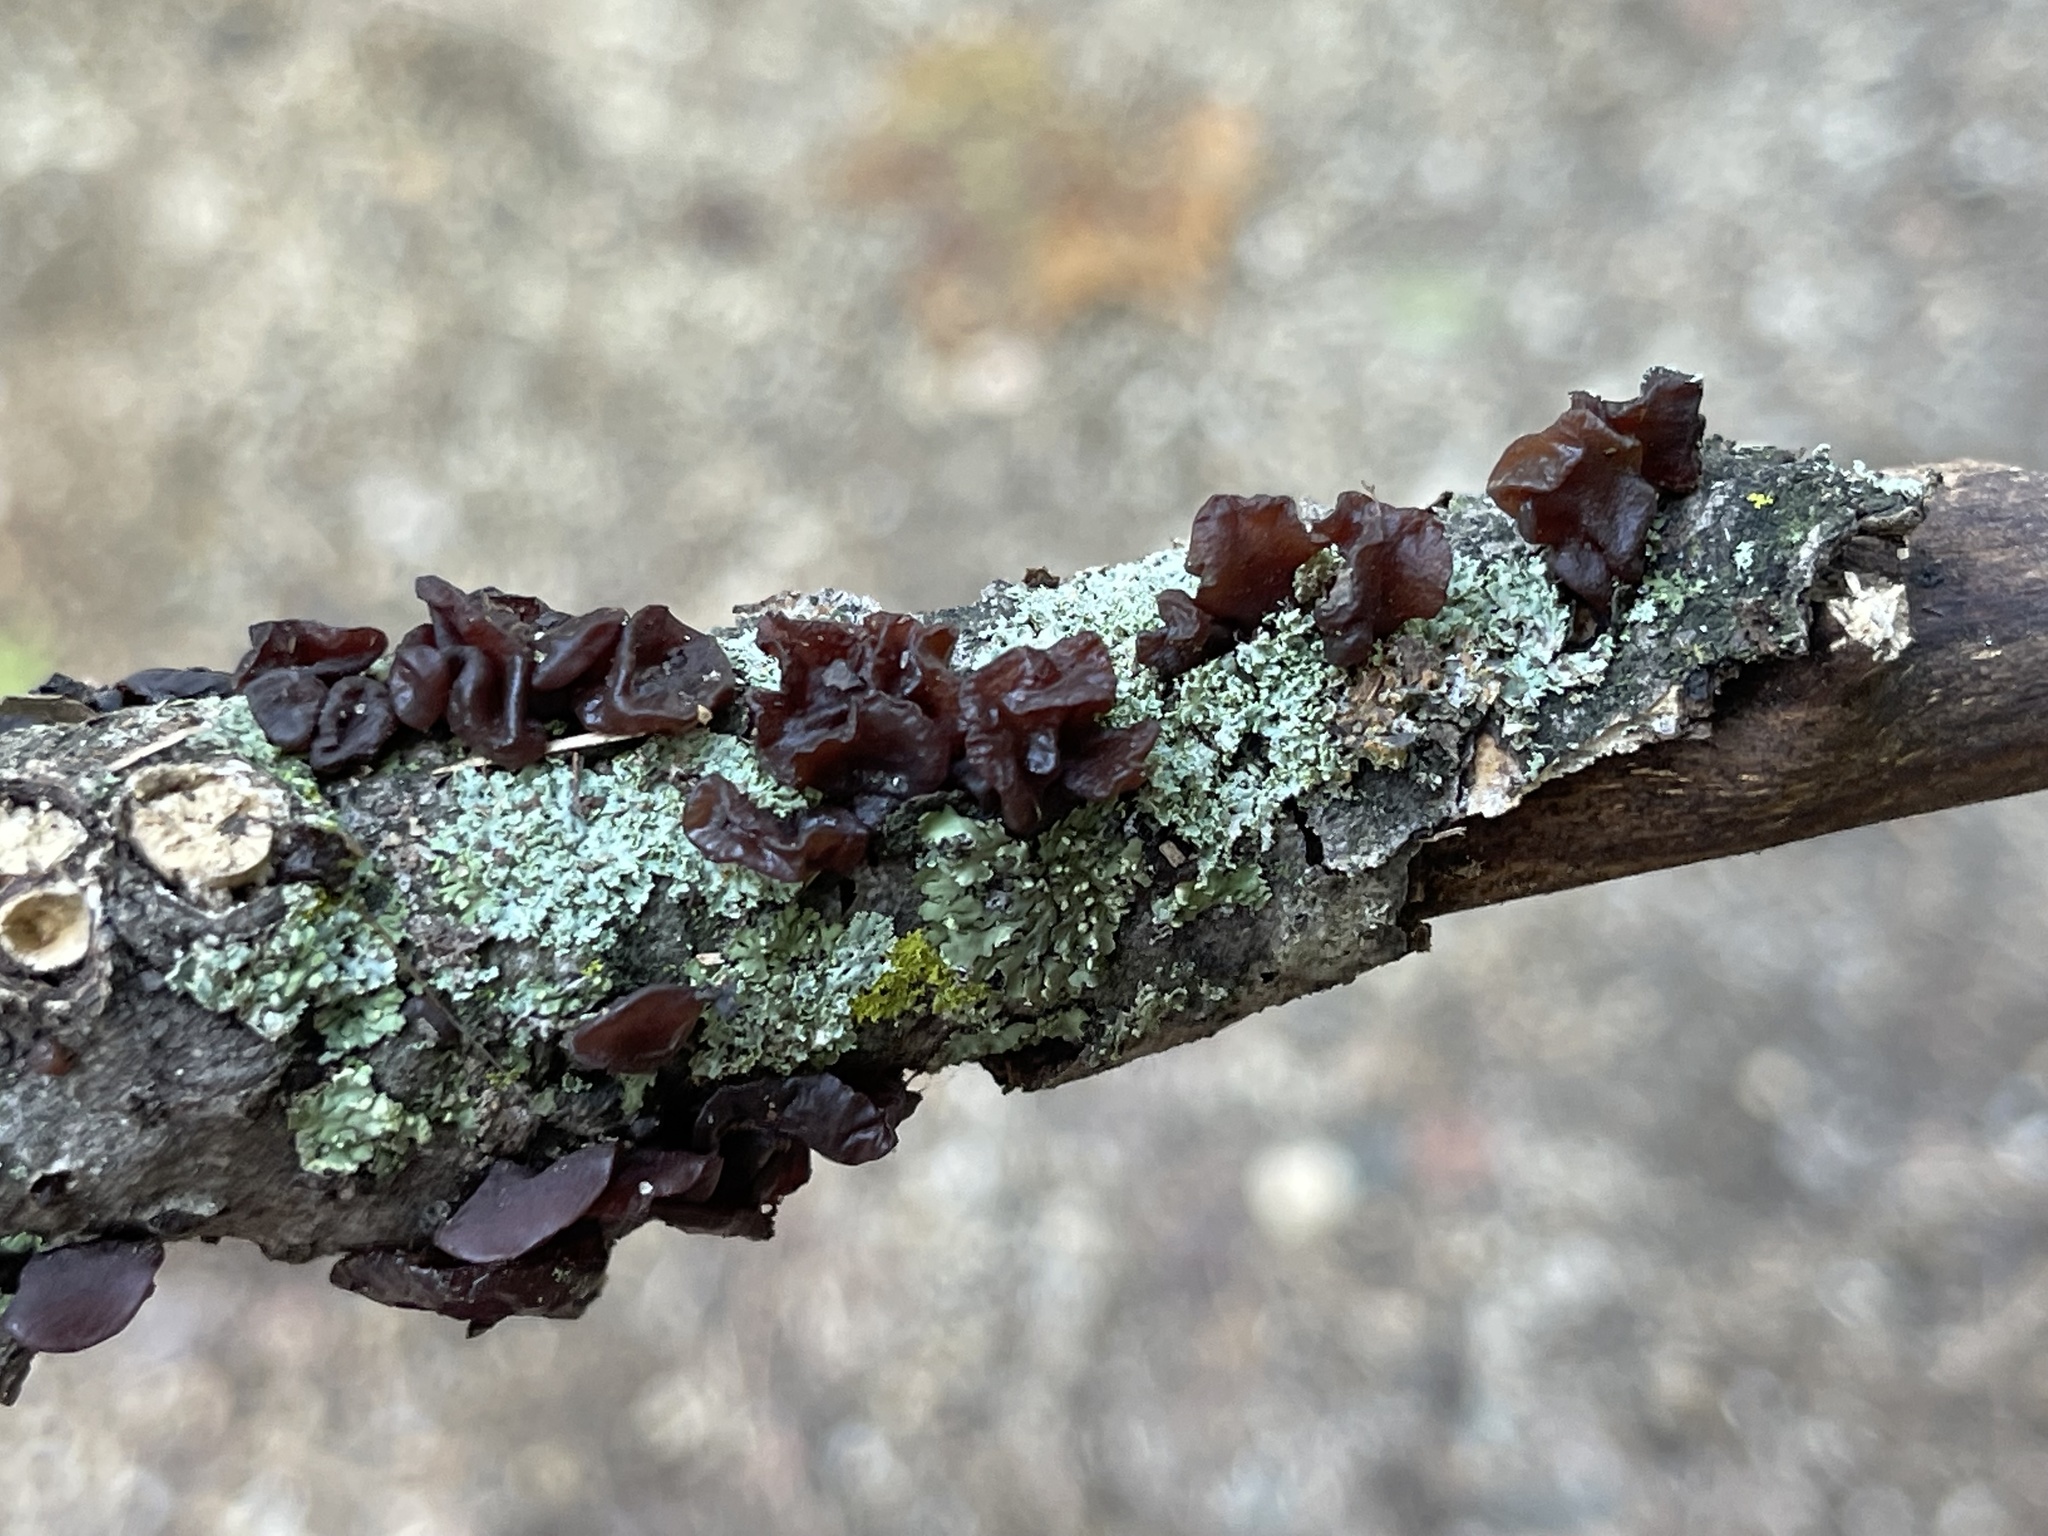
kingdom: Fungi
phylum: Basidiomycota
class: Agaricomycetes
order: Auriculariales
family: Auriculariaceae
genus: Exidia
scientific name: Exidia
